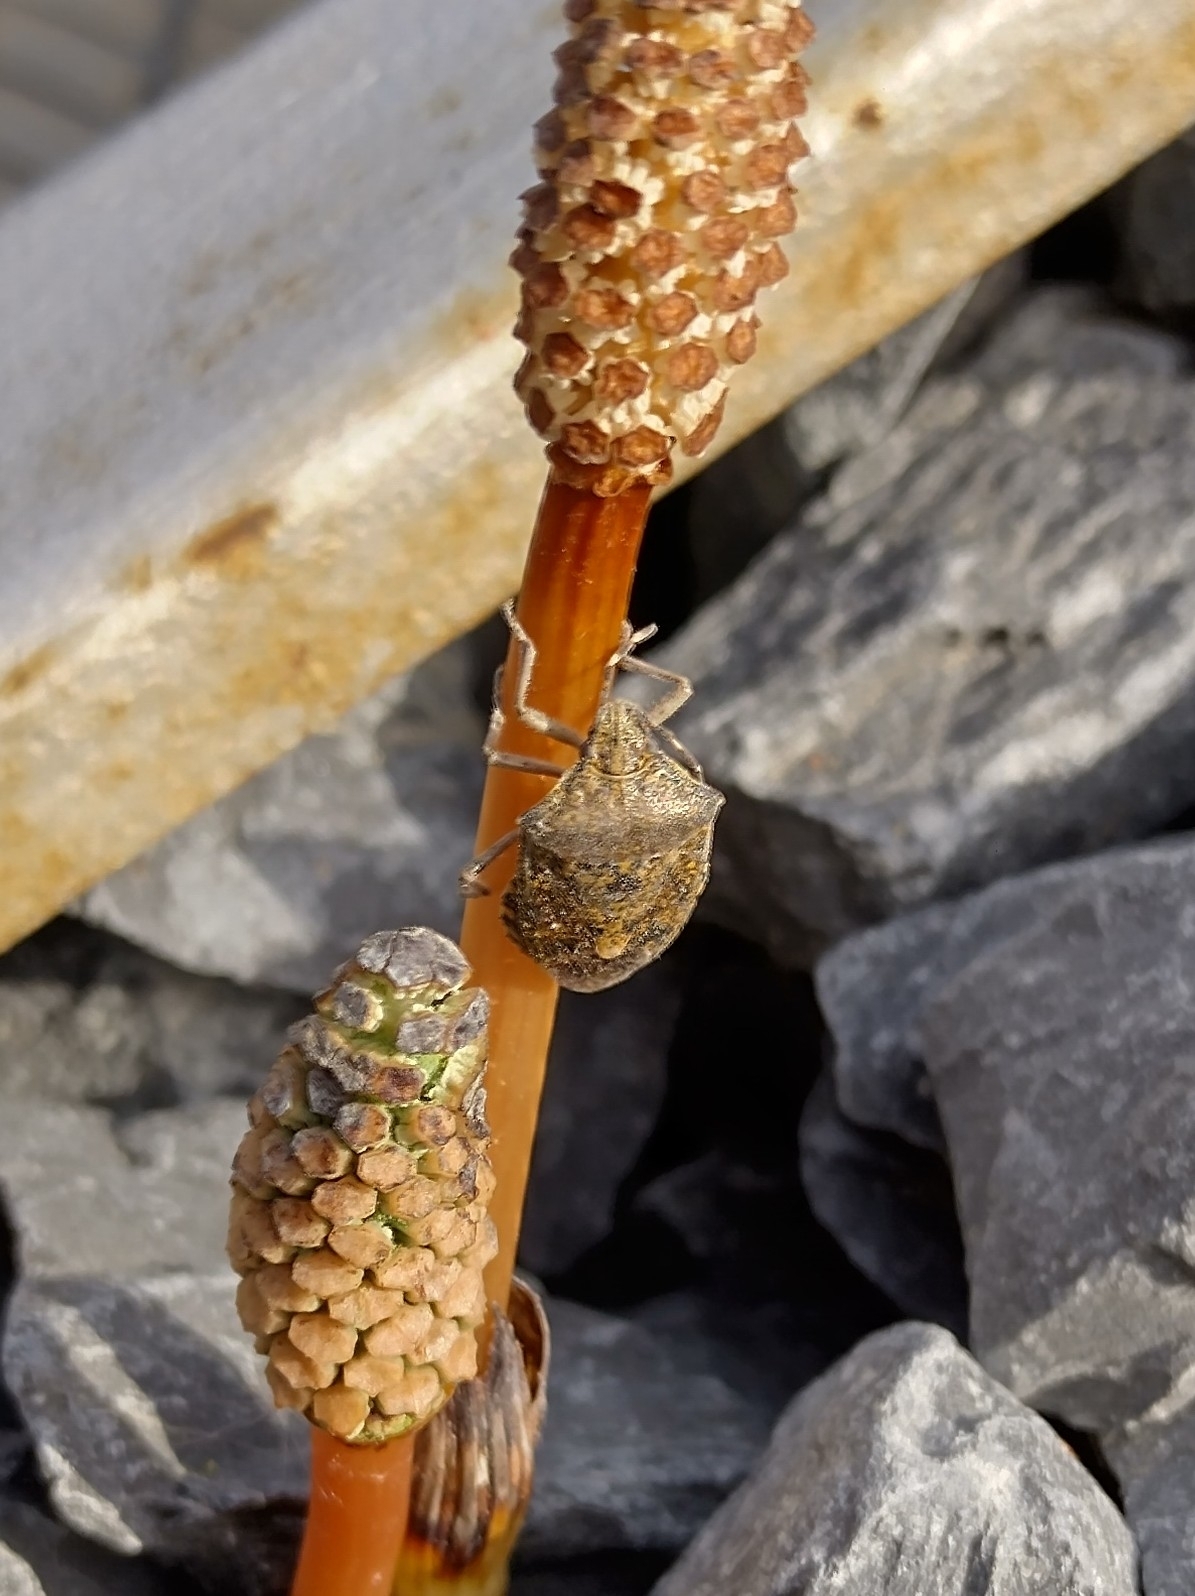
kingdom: Animalia
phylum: Arthropoda
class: Insecta
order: Hemiptera
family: Pentatomidae
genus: Rhaphigaster
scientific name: Rhaphigaster nebulosa
